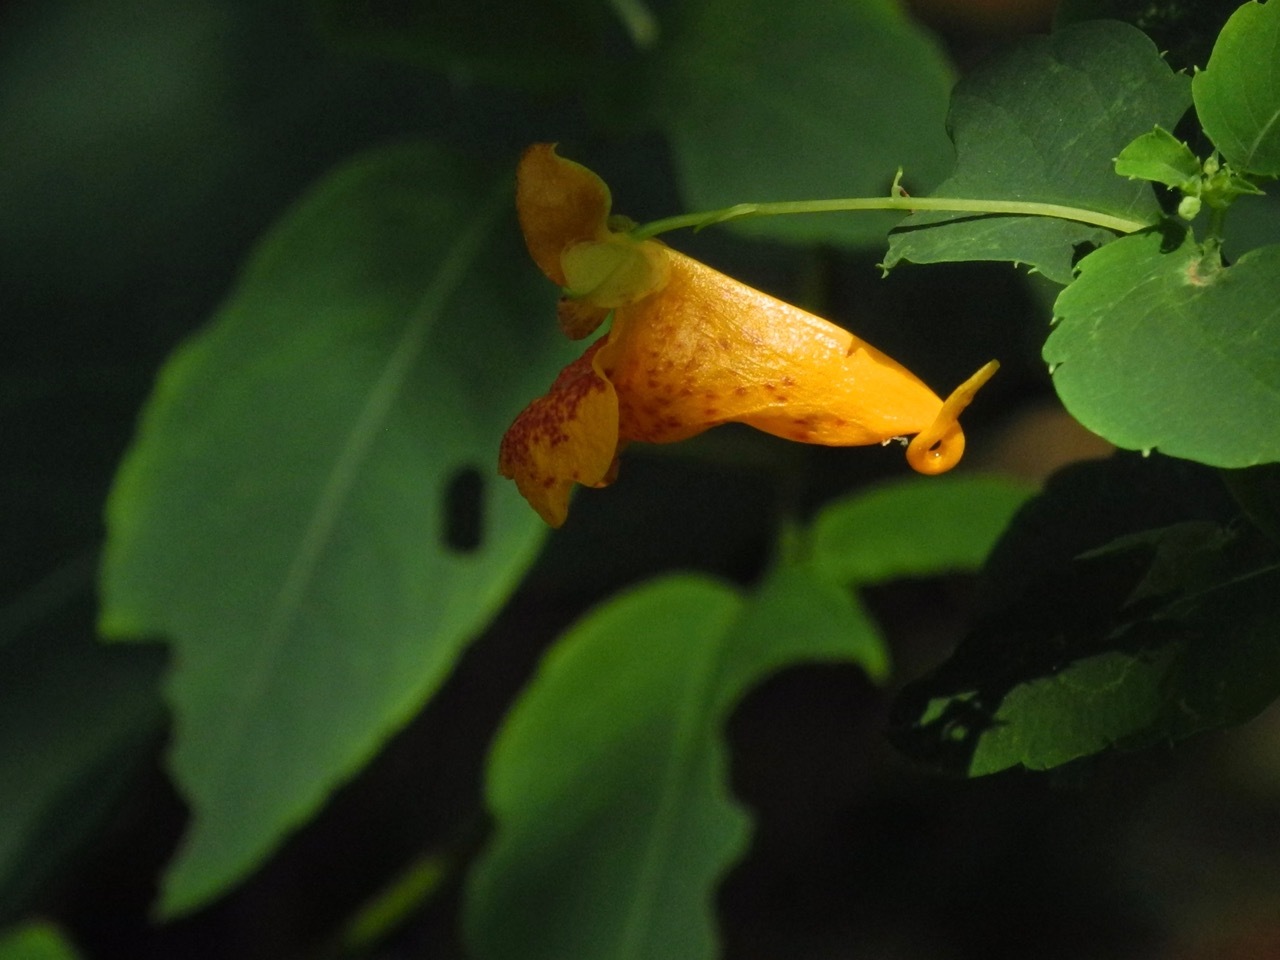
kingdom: Plantae
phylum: Tracheophyta
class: Magnoliopsida
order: Ericales
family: Balsaminaceae
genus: Impatiens
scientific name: Impatiens capensis
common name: Orange balsam
